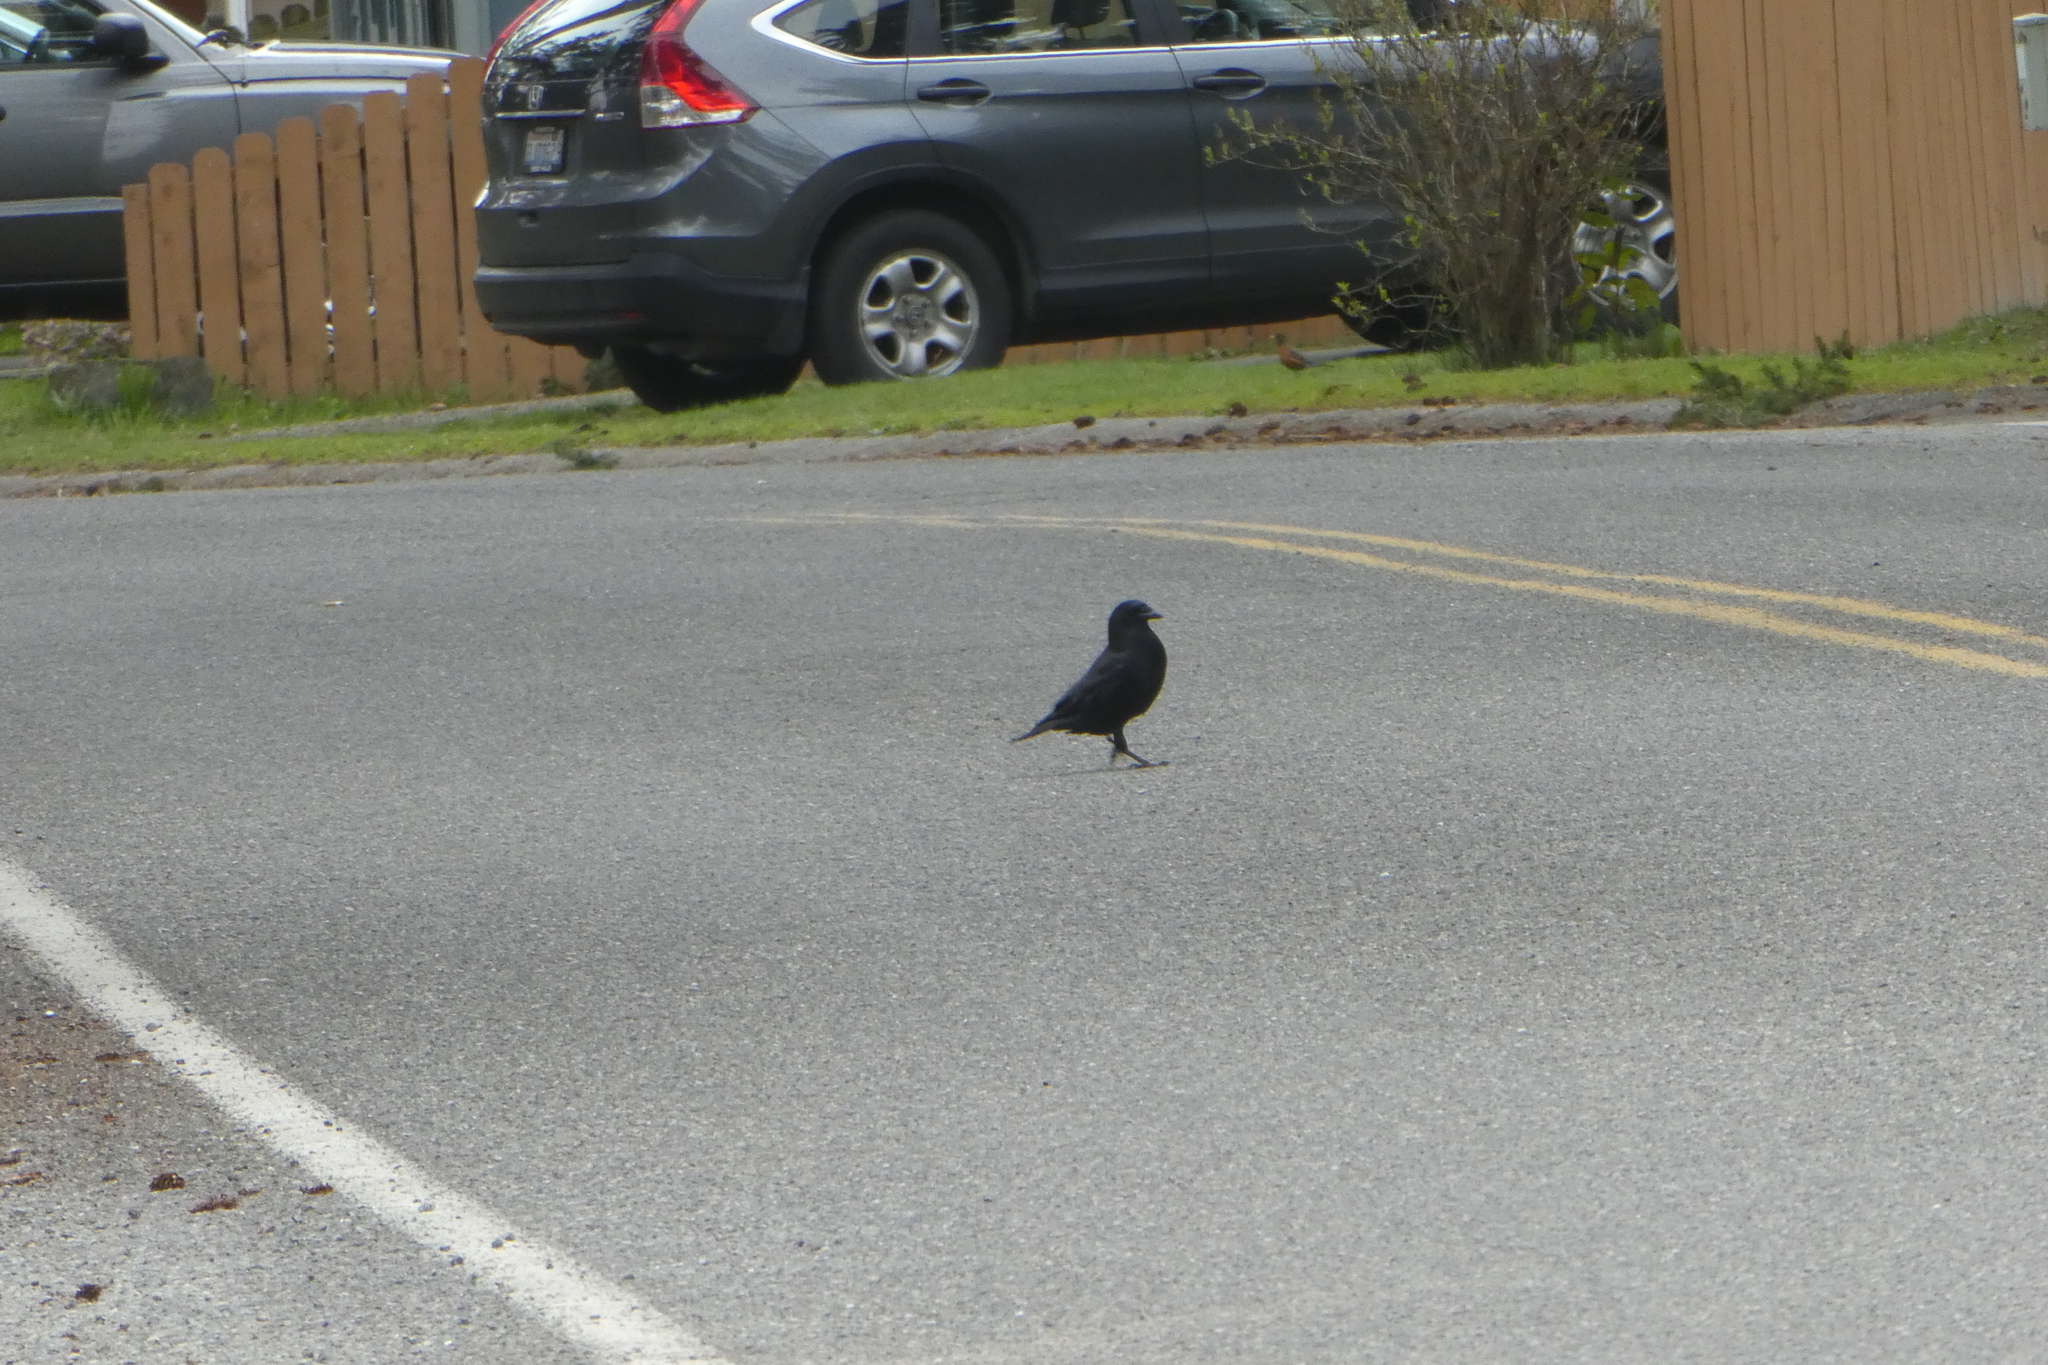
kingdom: Animalia
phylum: Chordata
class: Aves
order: Passeriformes
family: Corvidae
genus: Corvus
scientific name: Corvus brachyrhynchos
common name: American crow
